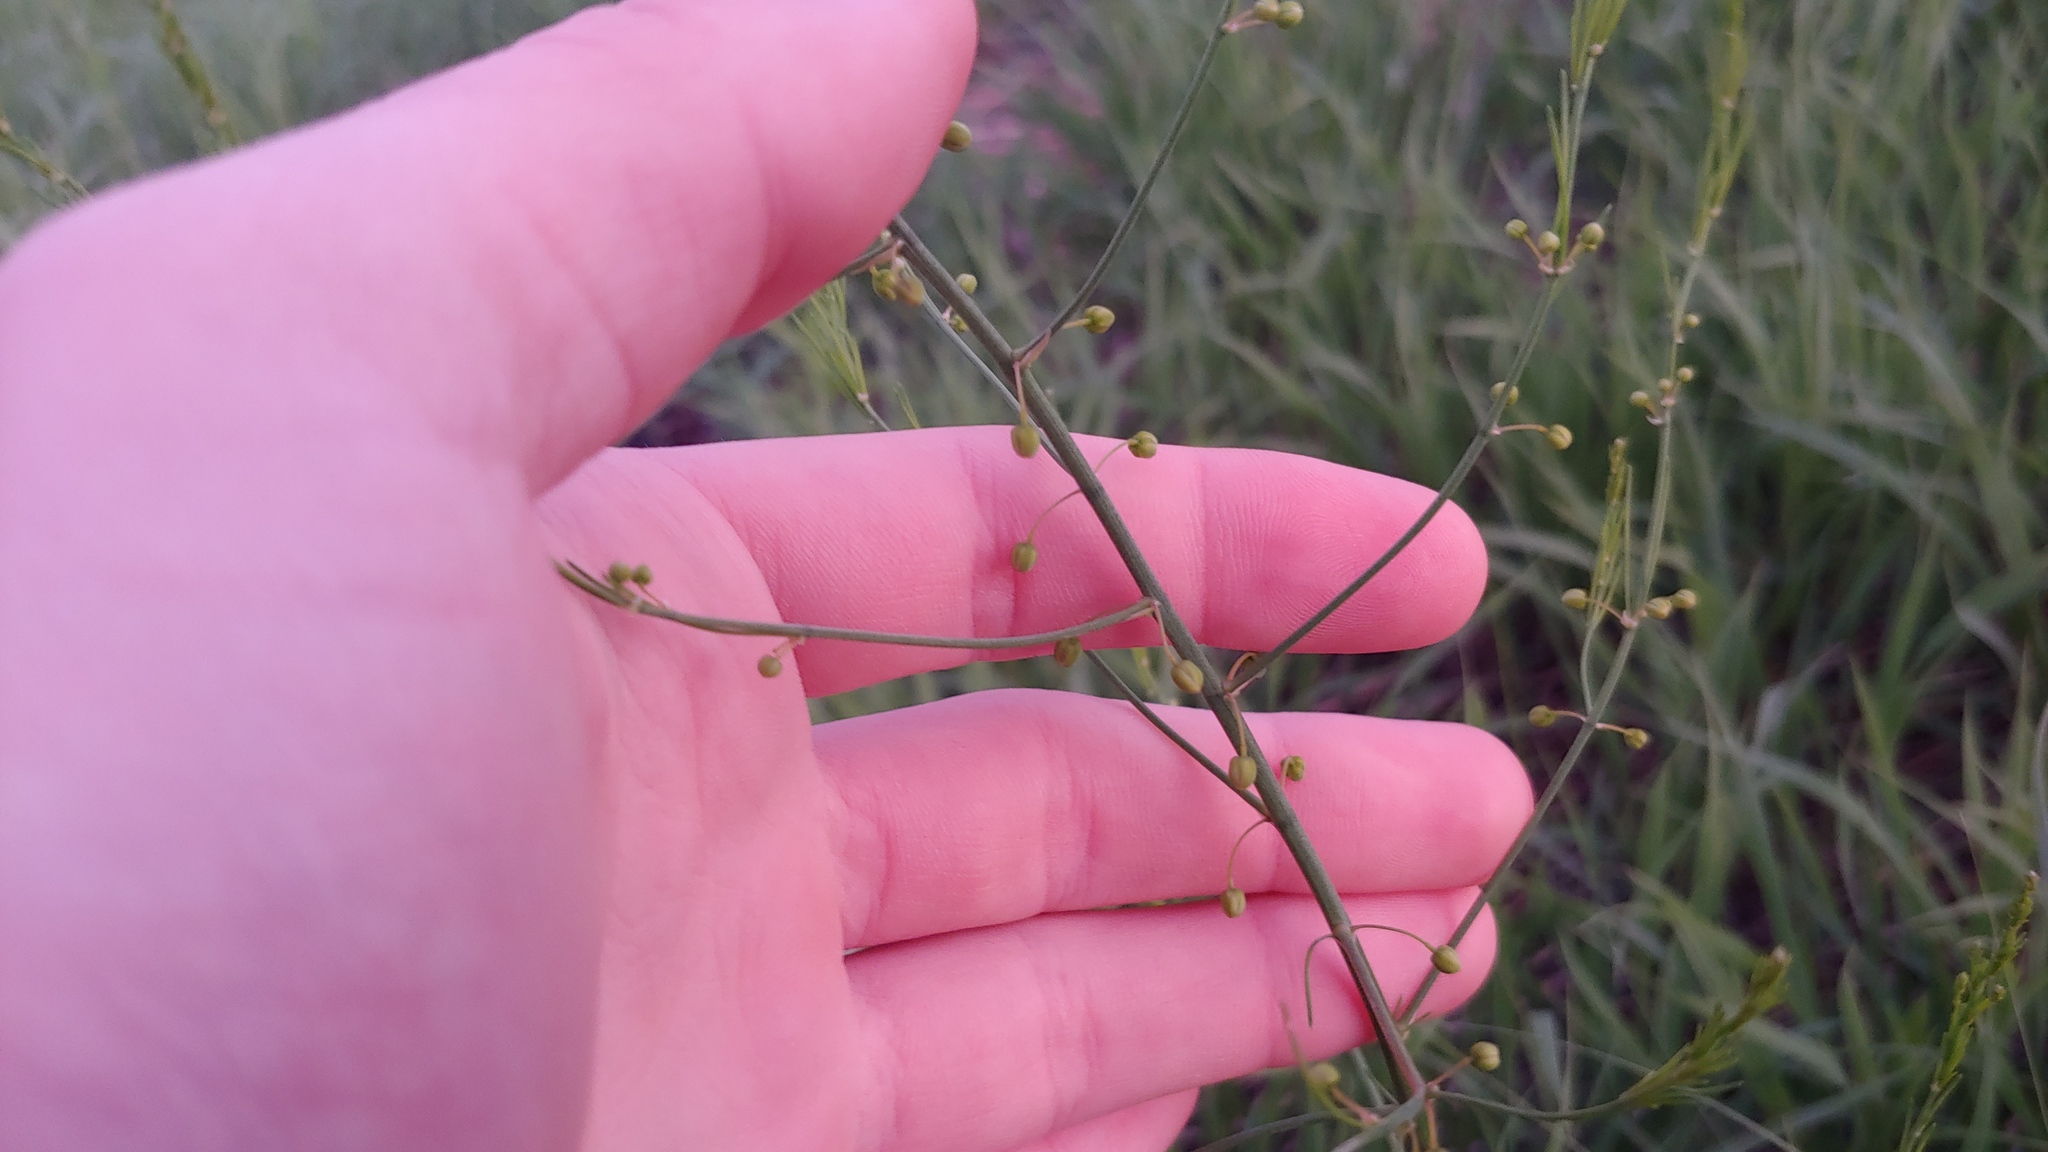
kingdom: Plantae
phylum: Tracheophyta
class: Liliopsida
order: Asparagales
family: Asparagaceae
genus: Asparagus
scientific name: Asparagus officinalis
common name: Garden asparagus
